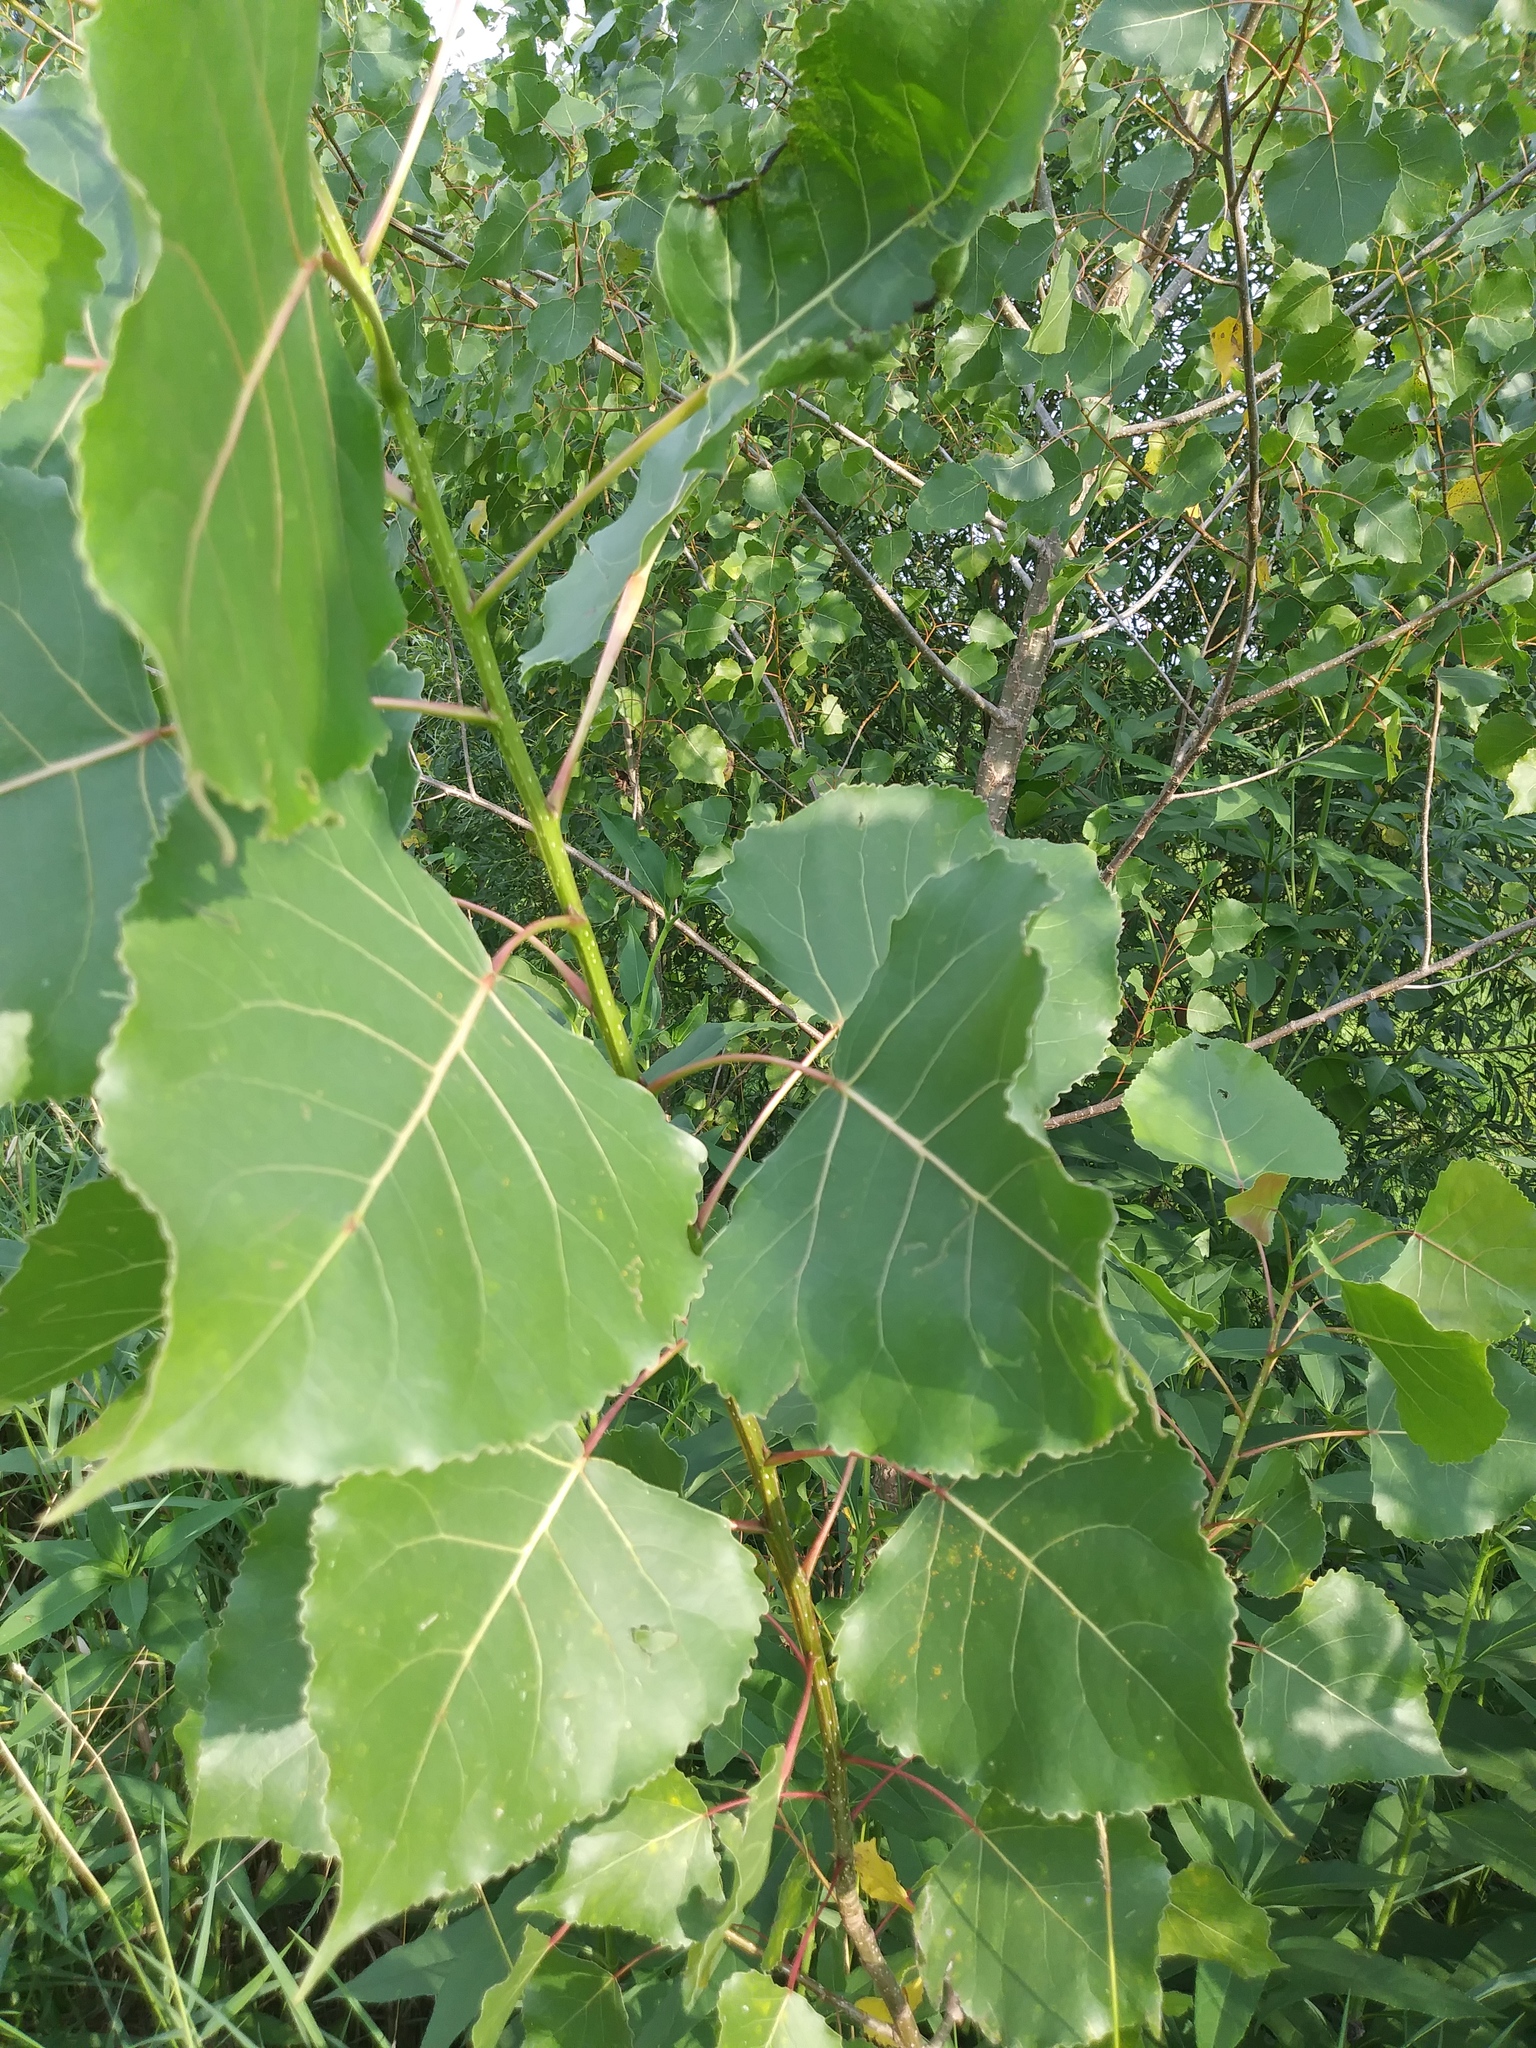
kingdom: Plantae
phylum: Tracheophyta
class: Magnoliopsida
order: Malpighiales
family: Salicaceae
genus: Populus
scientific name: Populus deltoides
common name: Eastern cottonwood
